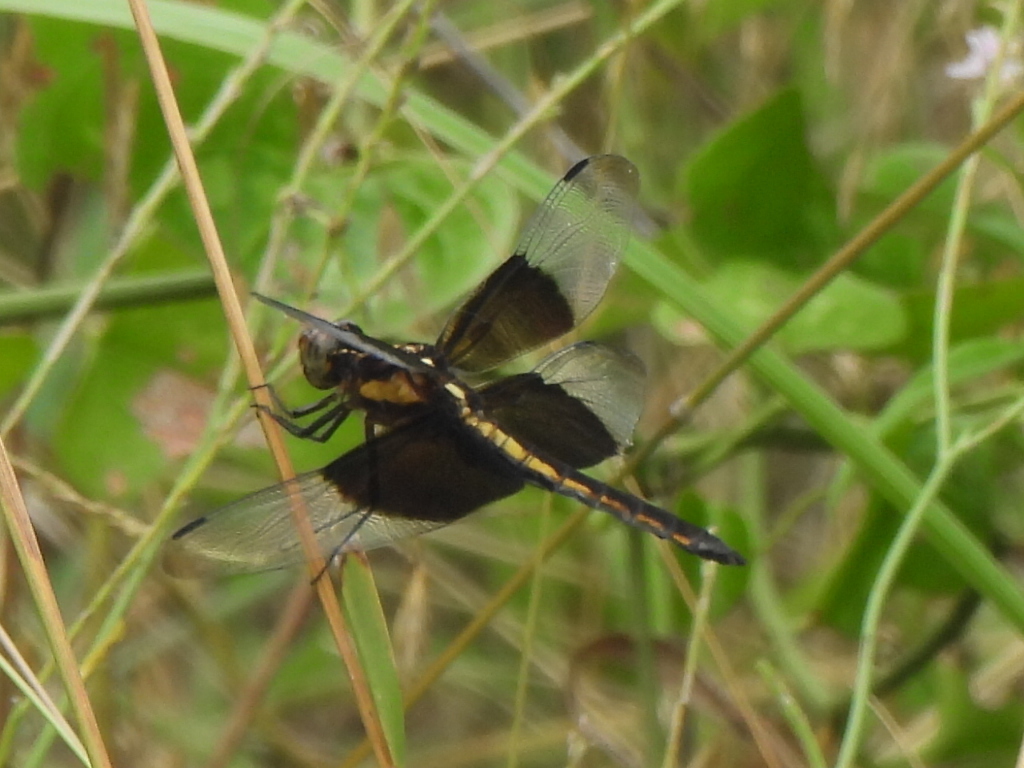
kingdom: Animalia
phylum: Arthropoda
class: Insecta
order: Odonata
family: Libellulidae
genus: Libellula
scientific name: Libellula luctuosa
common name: Widow skimmer
